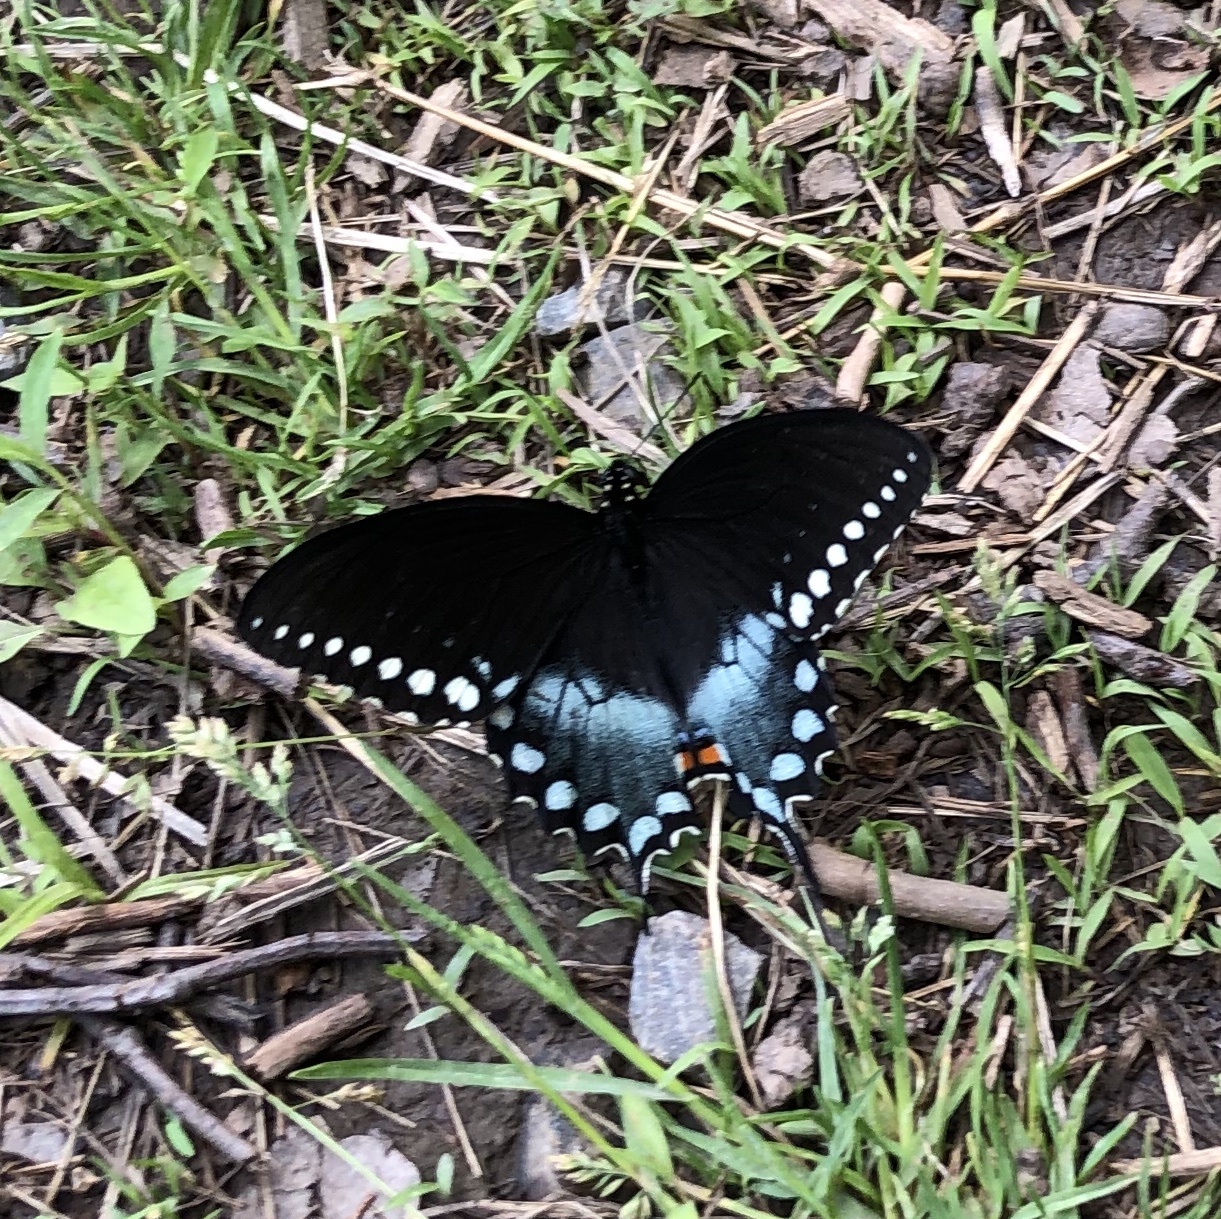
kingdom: Animalia
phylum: Arthropoda
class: Insecta
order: Lepidoptera
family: Papilionidae
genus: Papilio
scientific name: Papilio troilus
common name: Spicebush swallowtail
